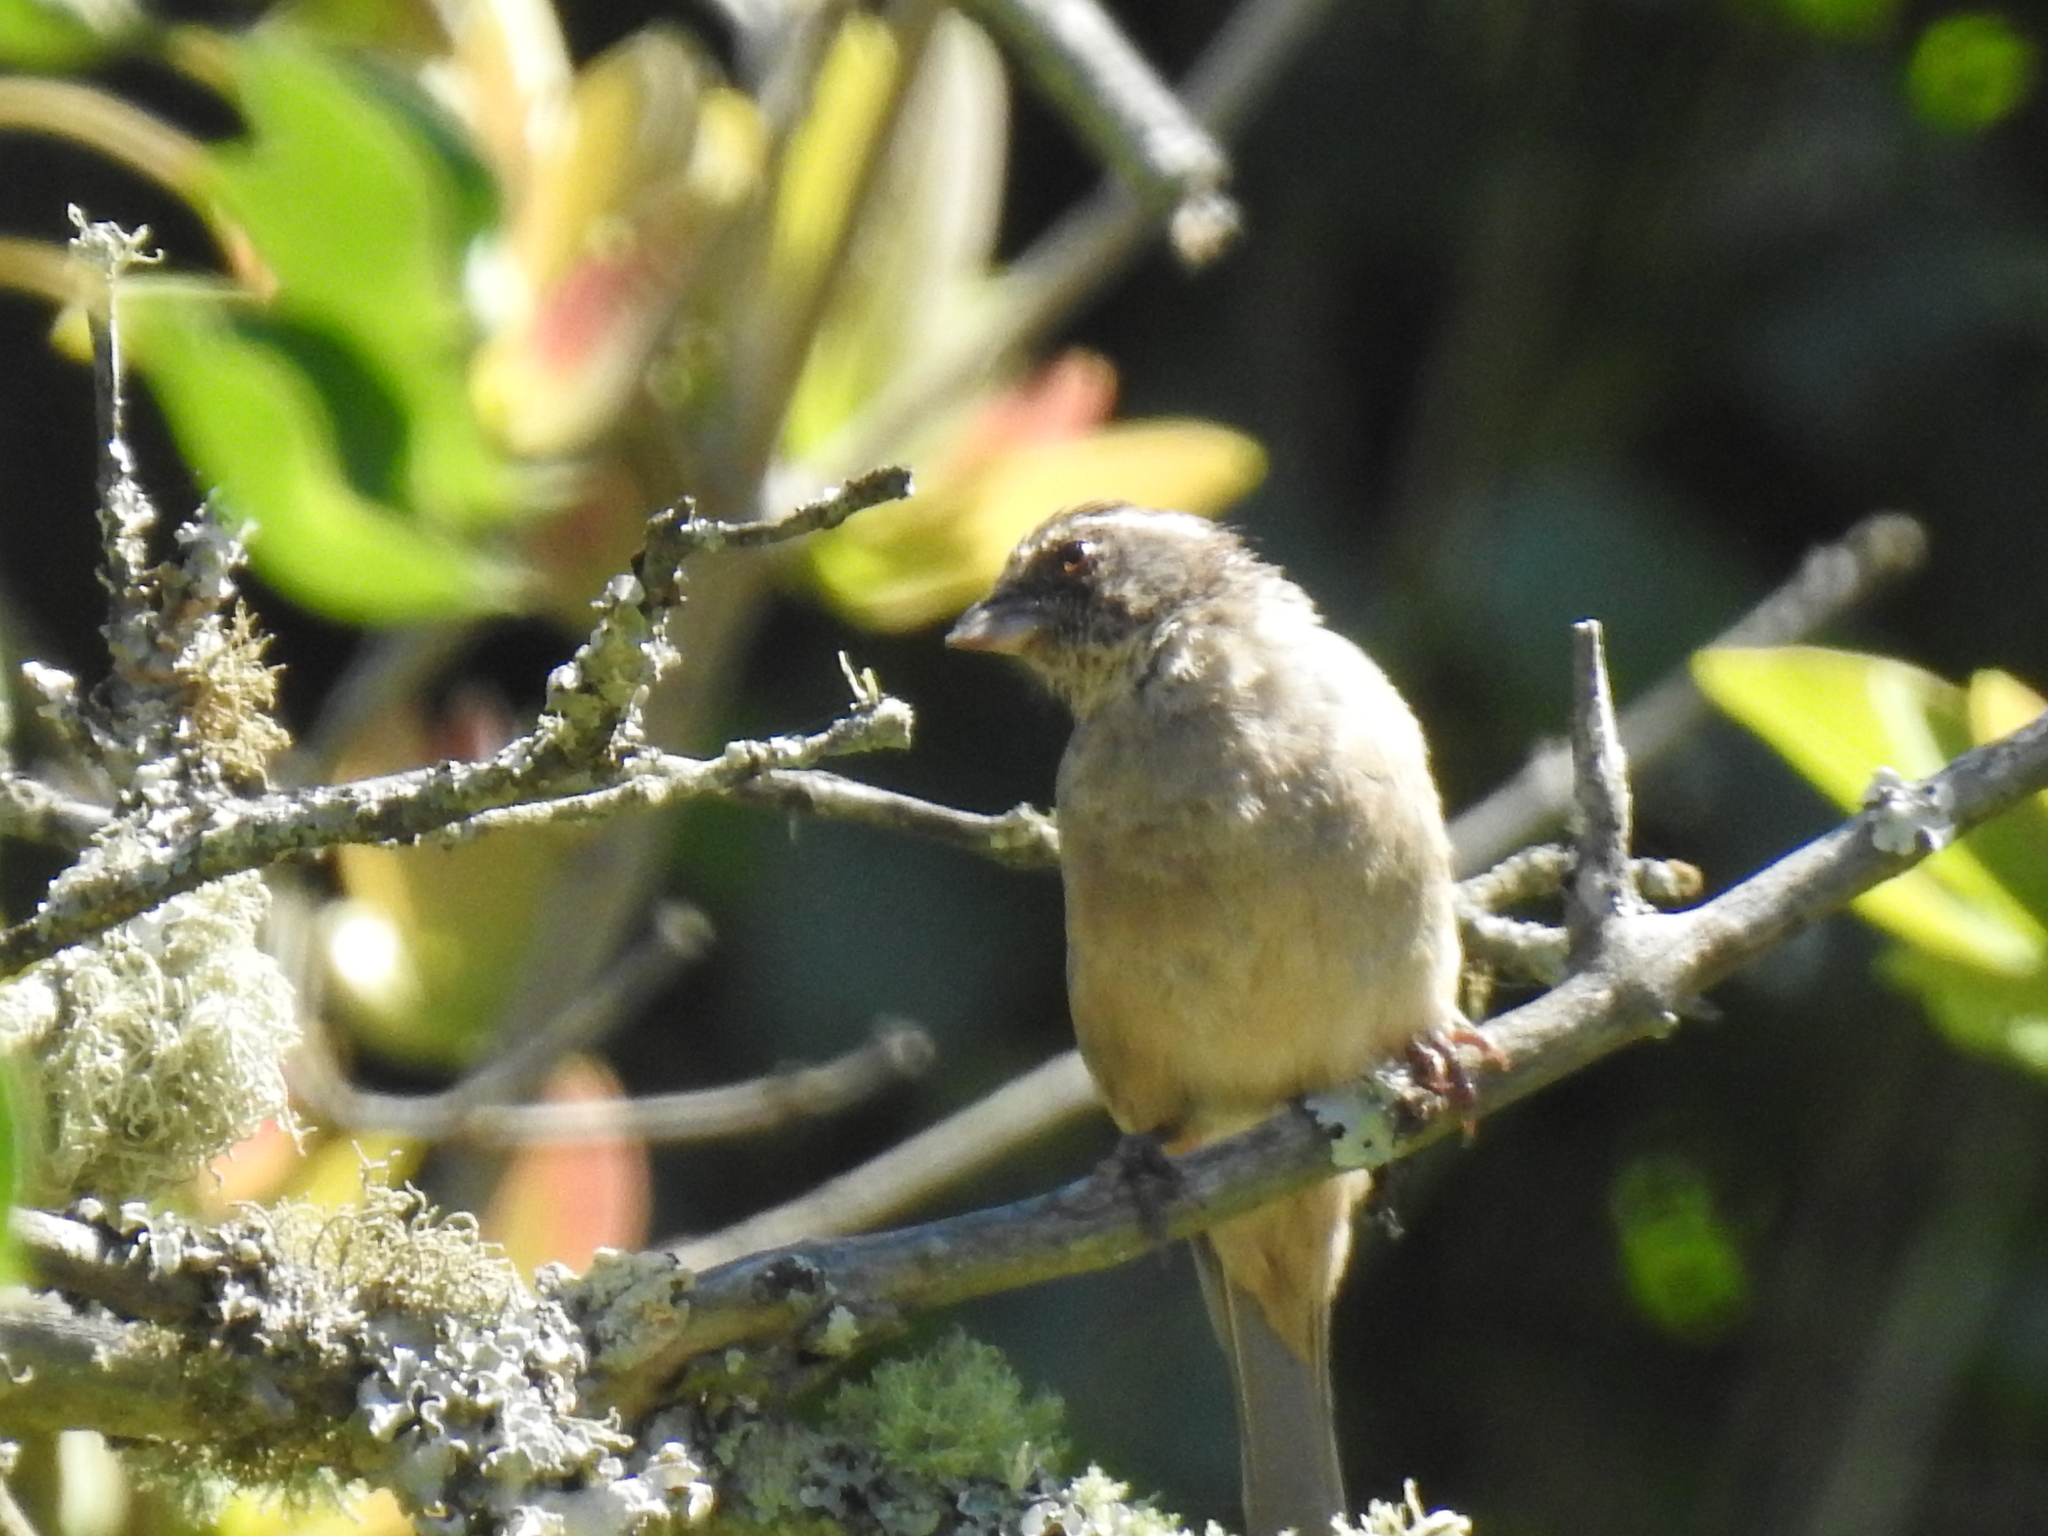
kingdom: Animalia
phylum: Chordata
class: Aves
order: Passeriformes
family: Fringillidae
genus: Crithagra
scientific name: Crithagra gularis
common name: Streaky-headed seedeater
